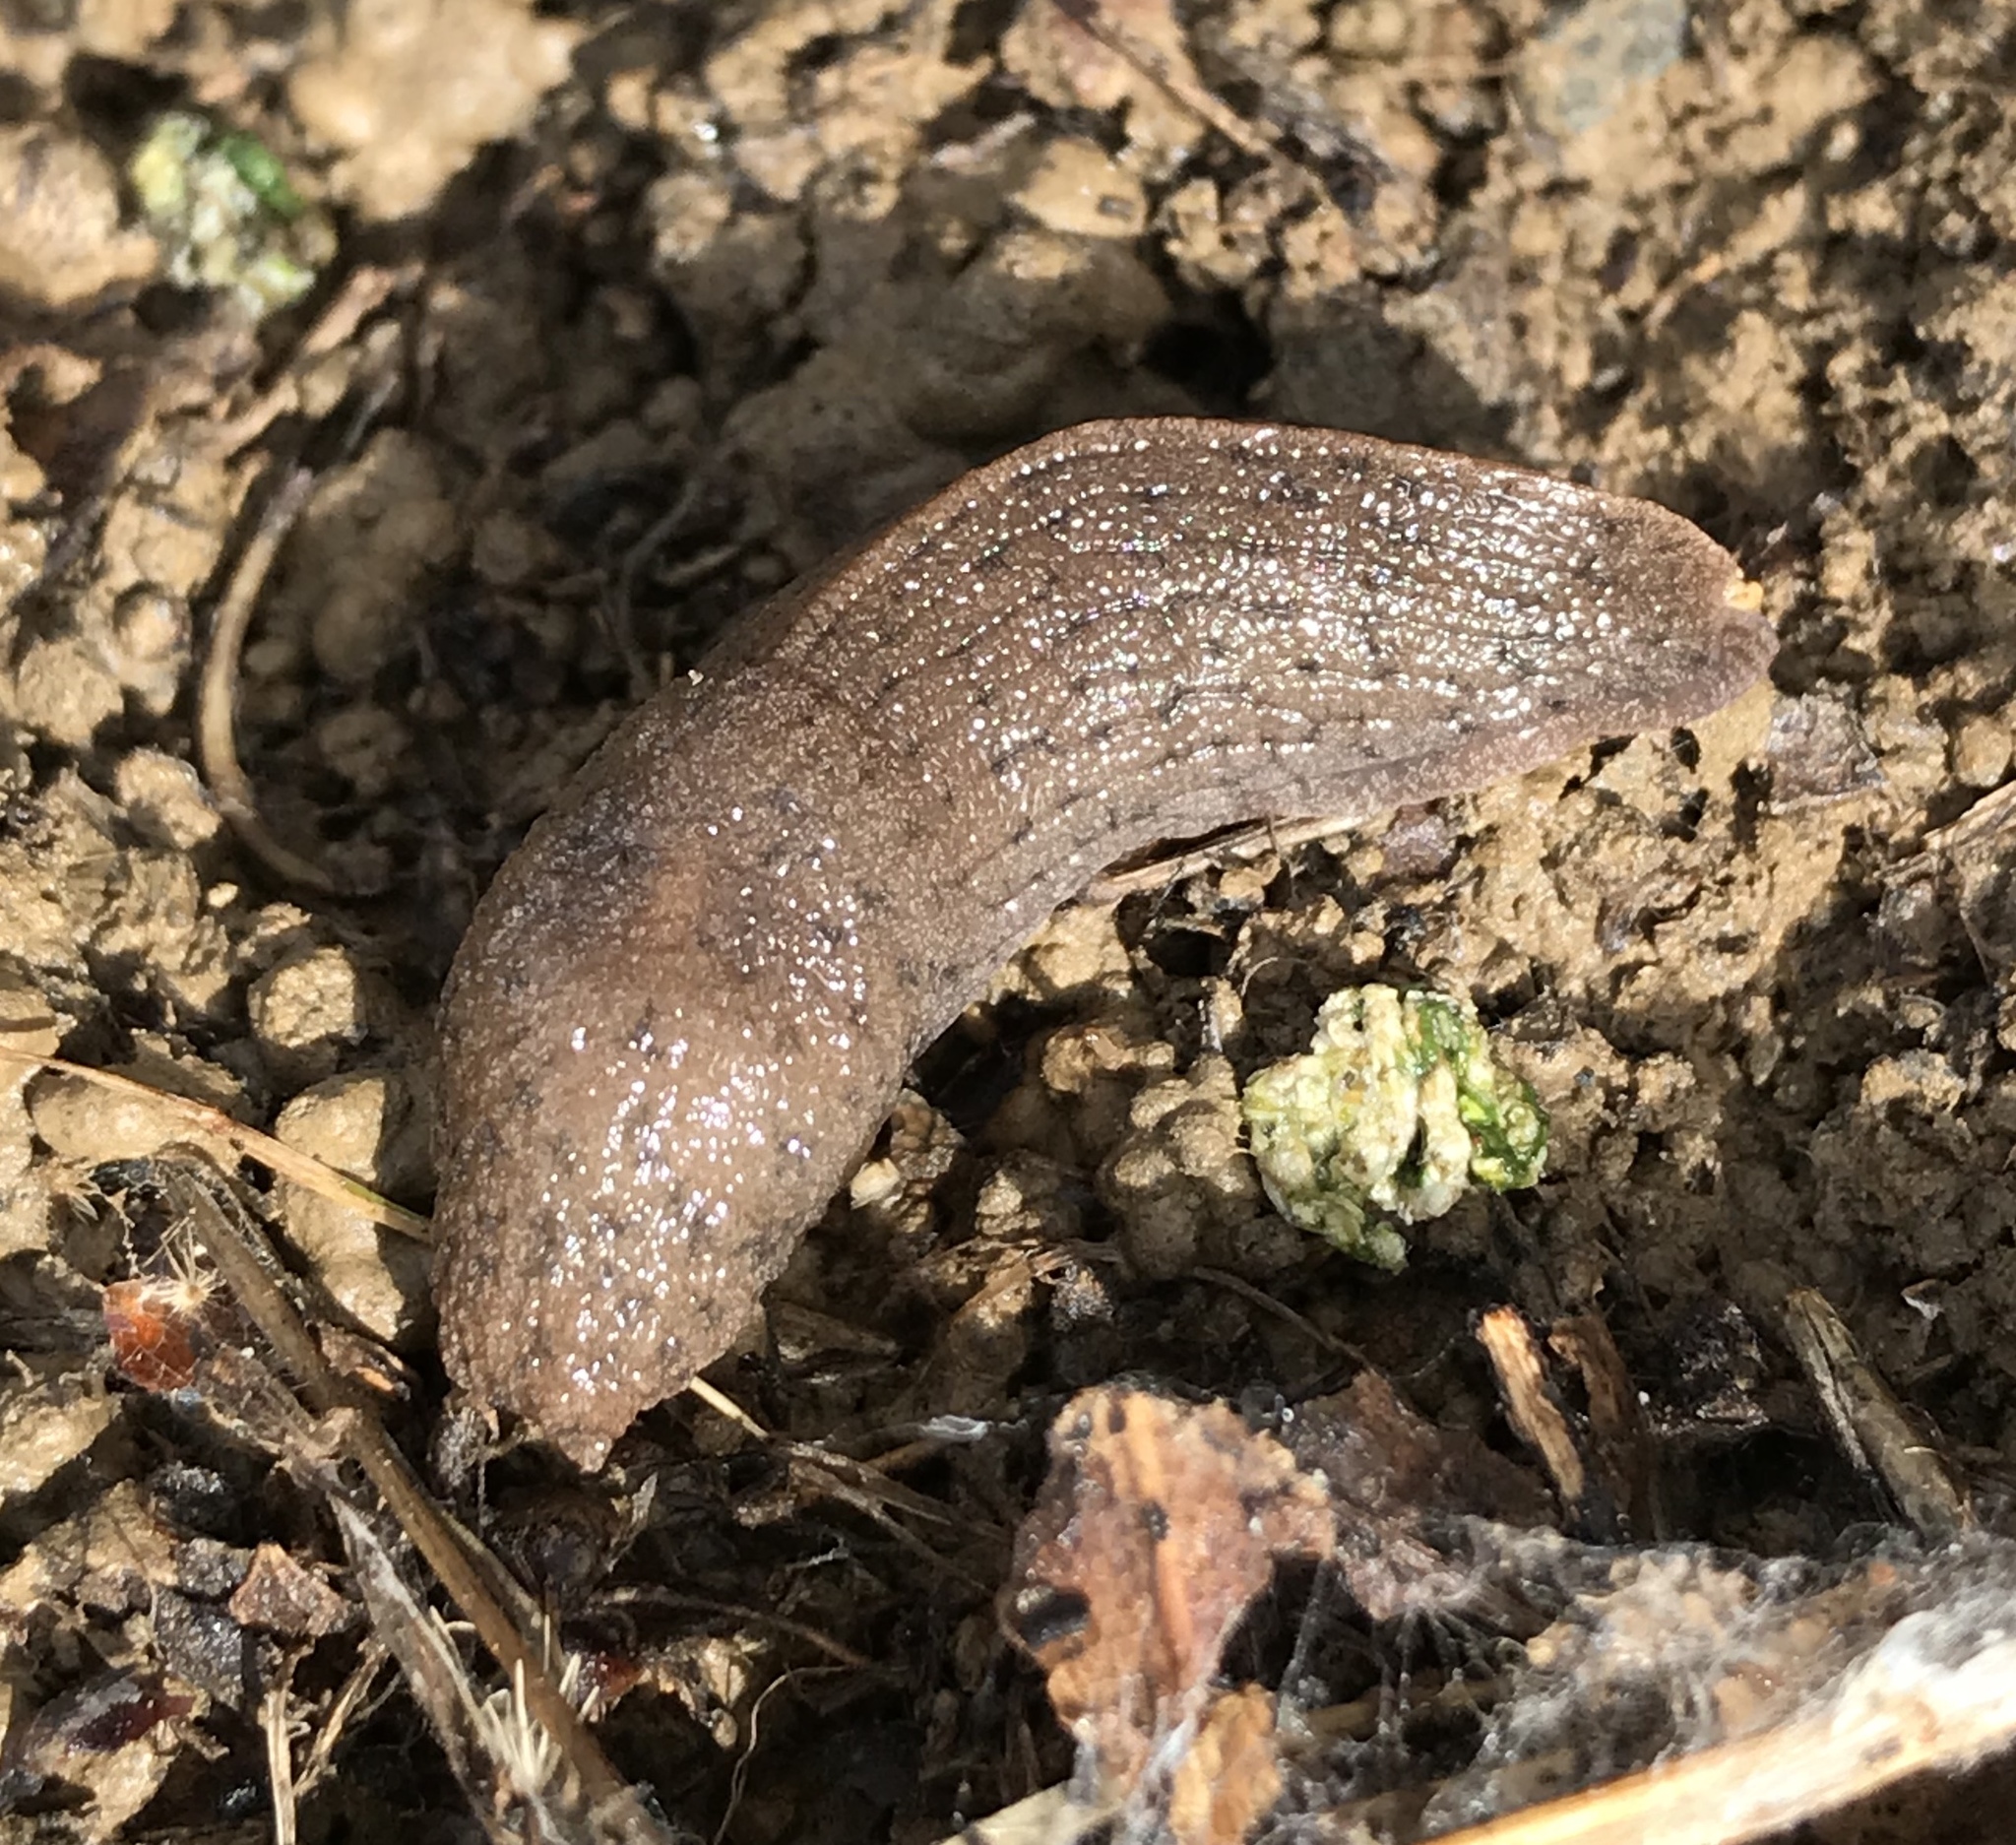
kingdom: Animalia
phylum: Mollusca
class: Gastropoda
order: Stylommatophora
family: Ariolimacidae
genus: Hesperarion
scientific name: Hesperarion niger
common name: Black western slug
